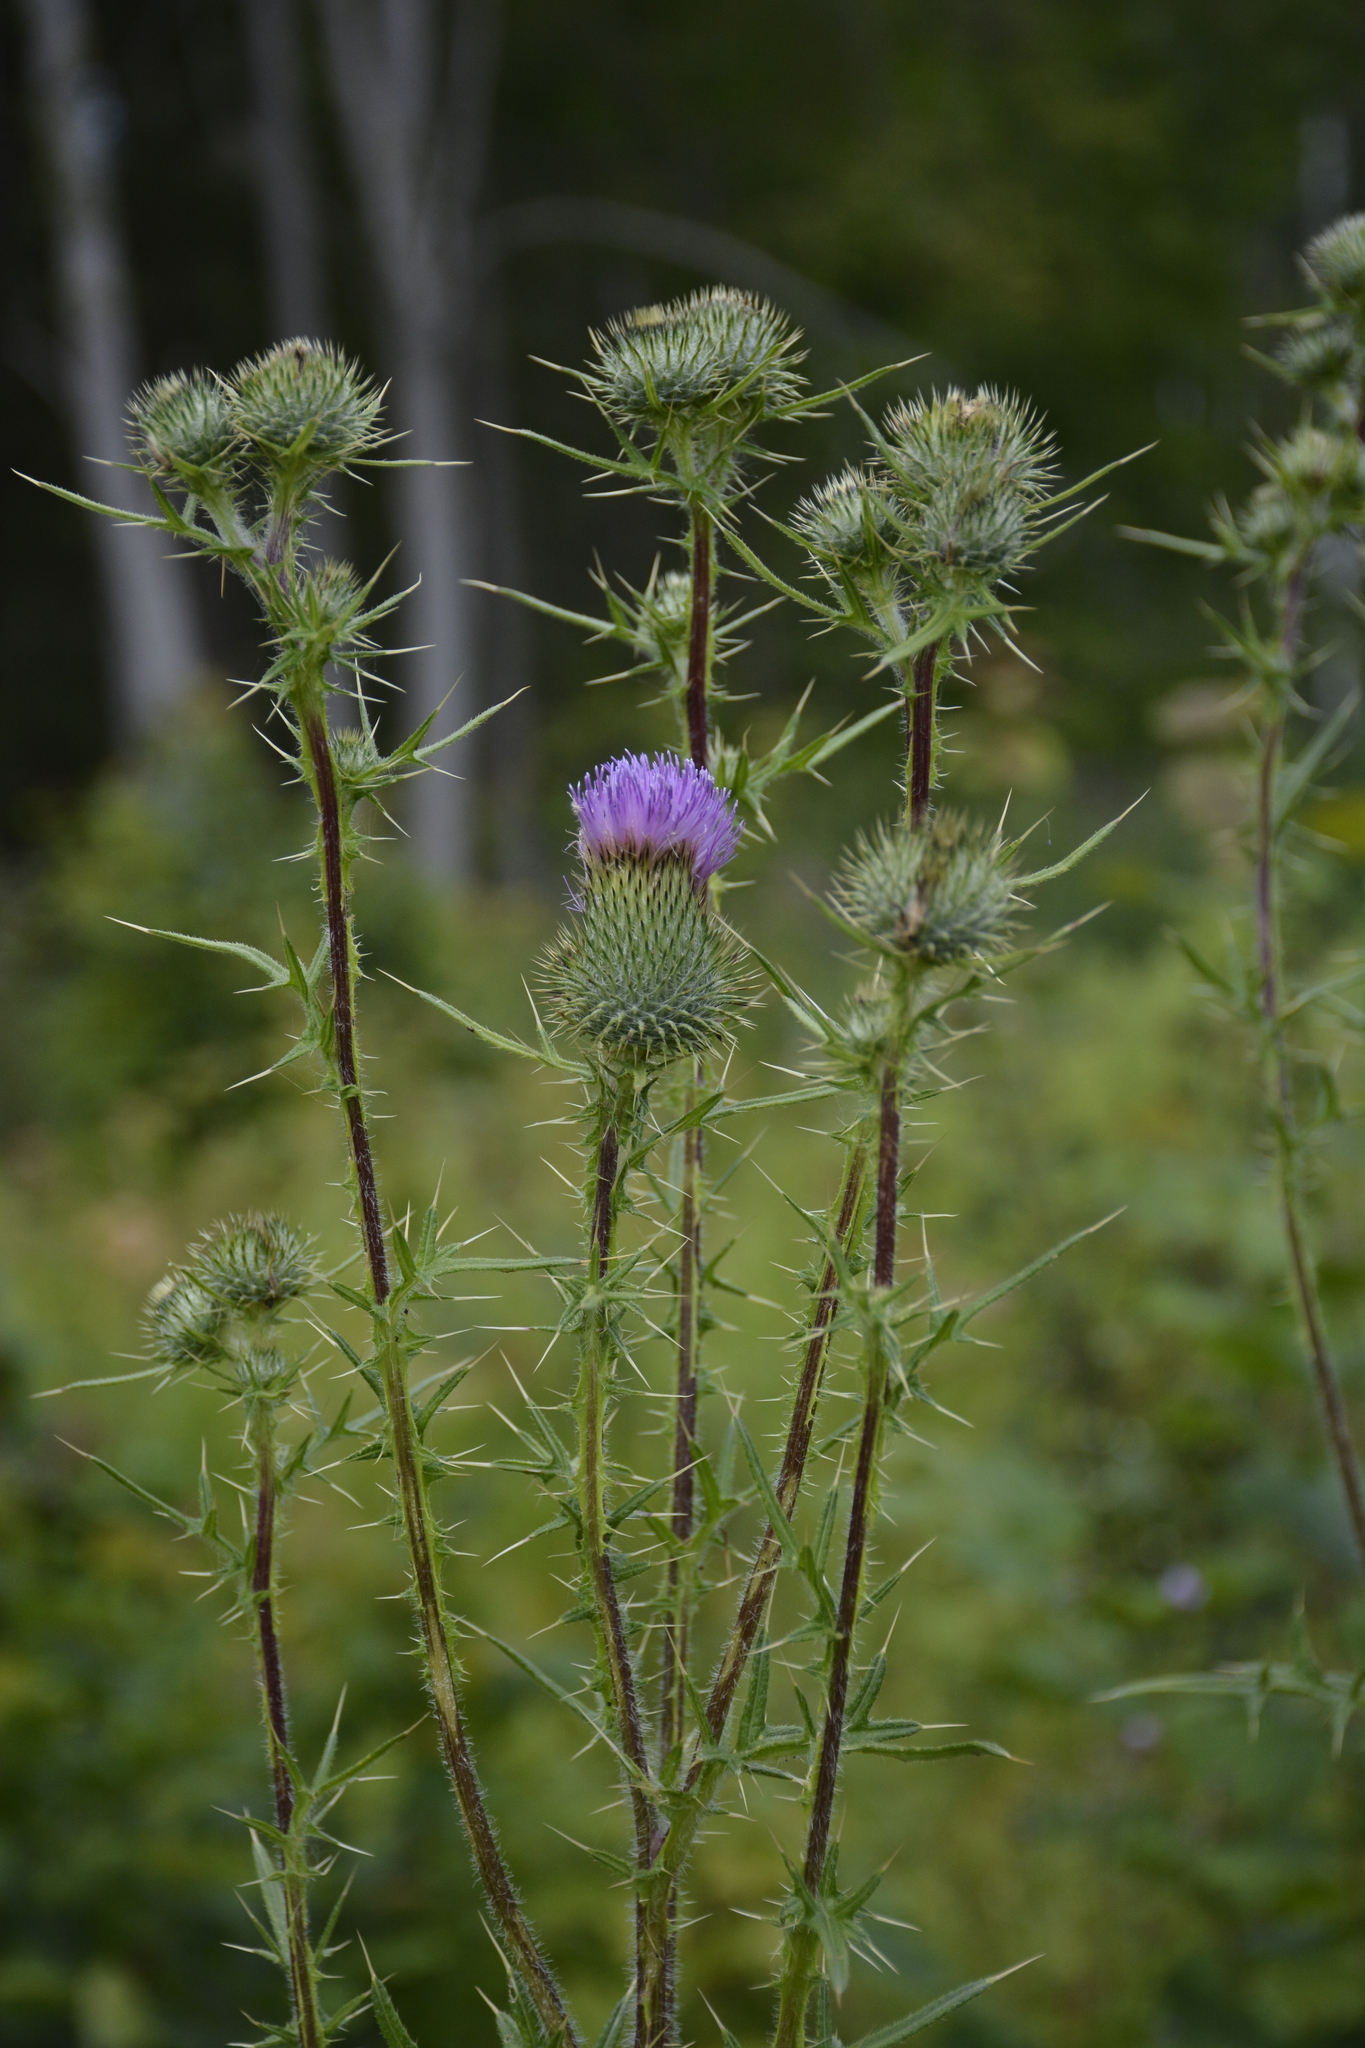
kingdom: Plantae
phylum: Tracheophyta
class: Magnoliopsida
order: Asterales
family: Asteraceae
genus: Cirsium
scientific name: Cirsium vulgare
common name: Bull thistle
